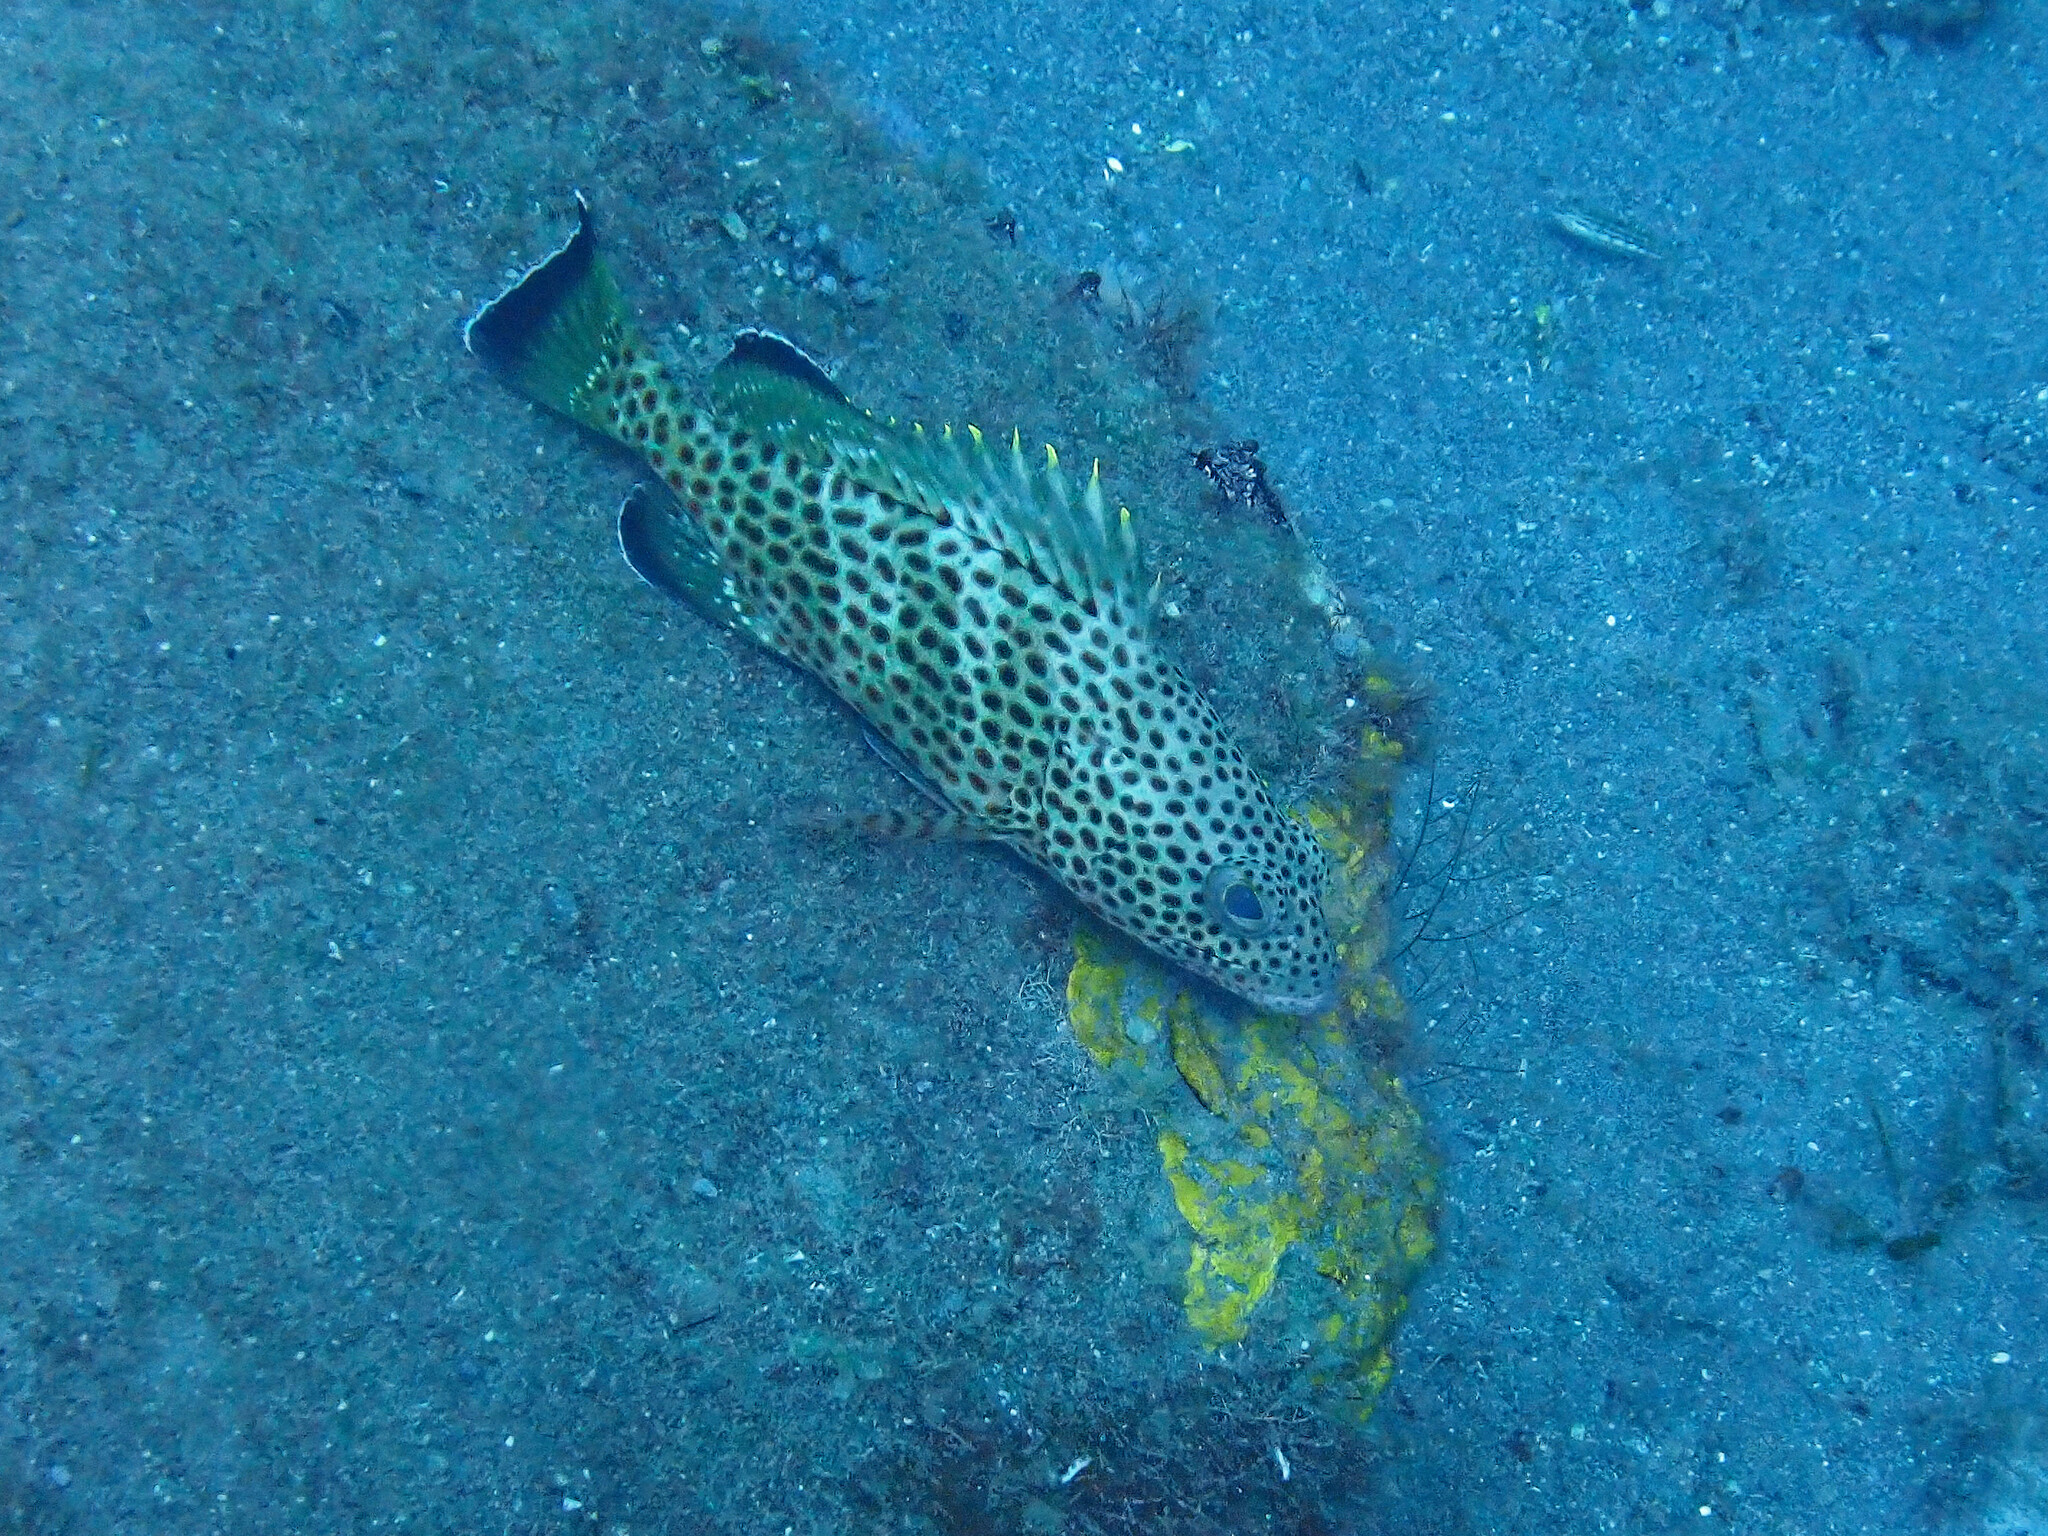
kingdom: Animalia
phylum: Chordata
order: Perciformes
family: Serranidae
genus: Epinephelus
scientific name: Epinephelus guttatus
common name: Red hind
